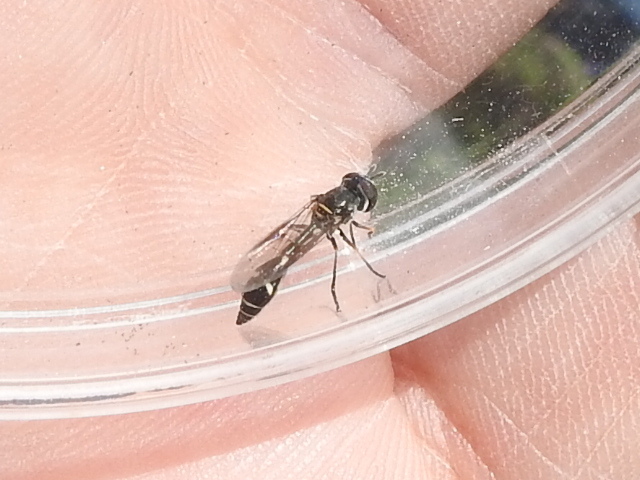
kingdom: Animalia
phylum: Arthropoda
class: Insecta
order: Diptera
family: Syrphidae
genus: Dioprosopa
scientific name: Dioprosopa clavatus
